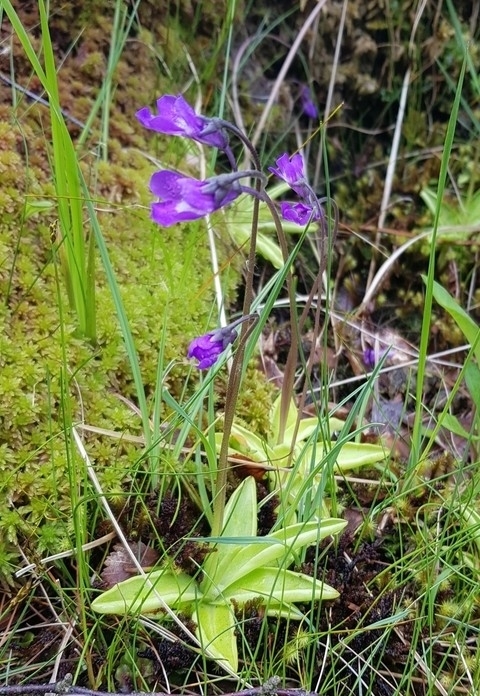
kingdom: Plantae
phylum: Tracheophyta
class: Magnoliopsida
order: Lamiales
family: Lentibulariaceae
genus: Pinguicula
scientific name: Pinguicula vulgaris
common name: Common butterwort
